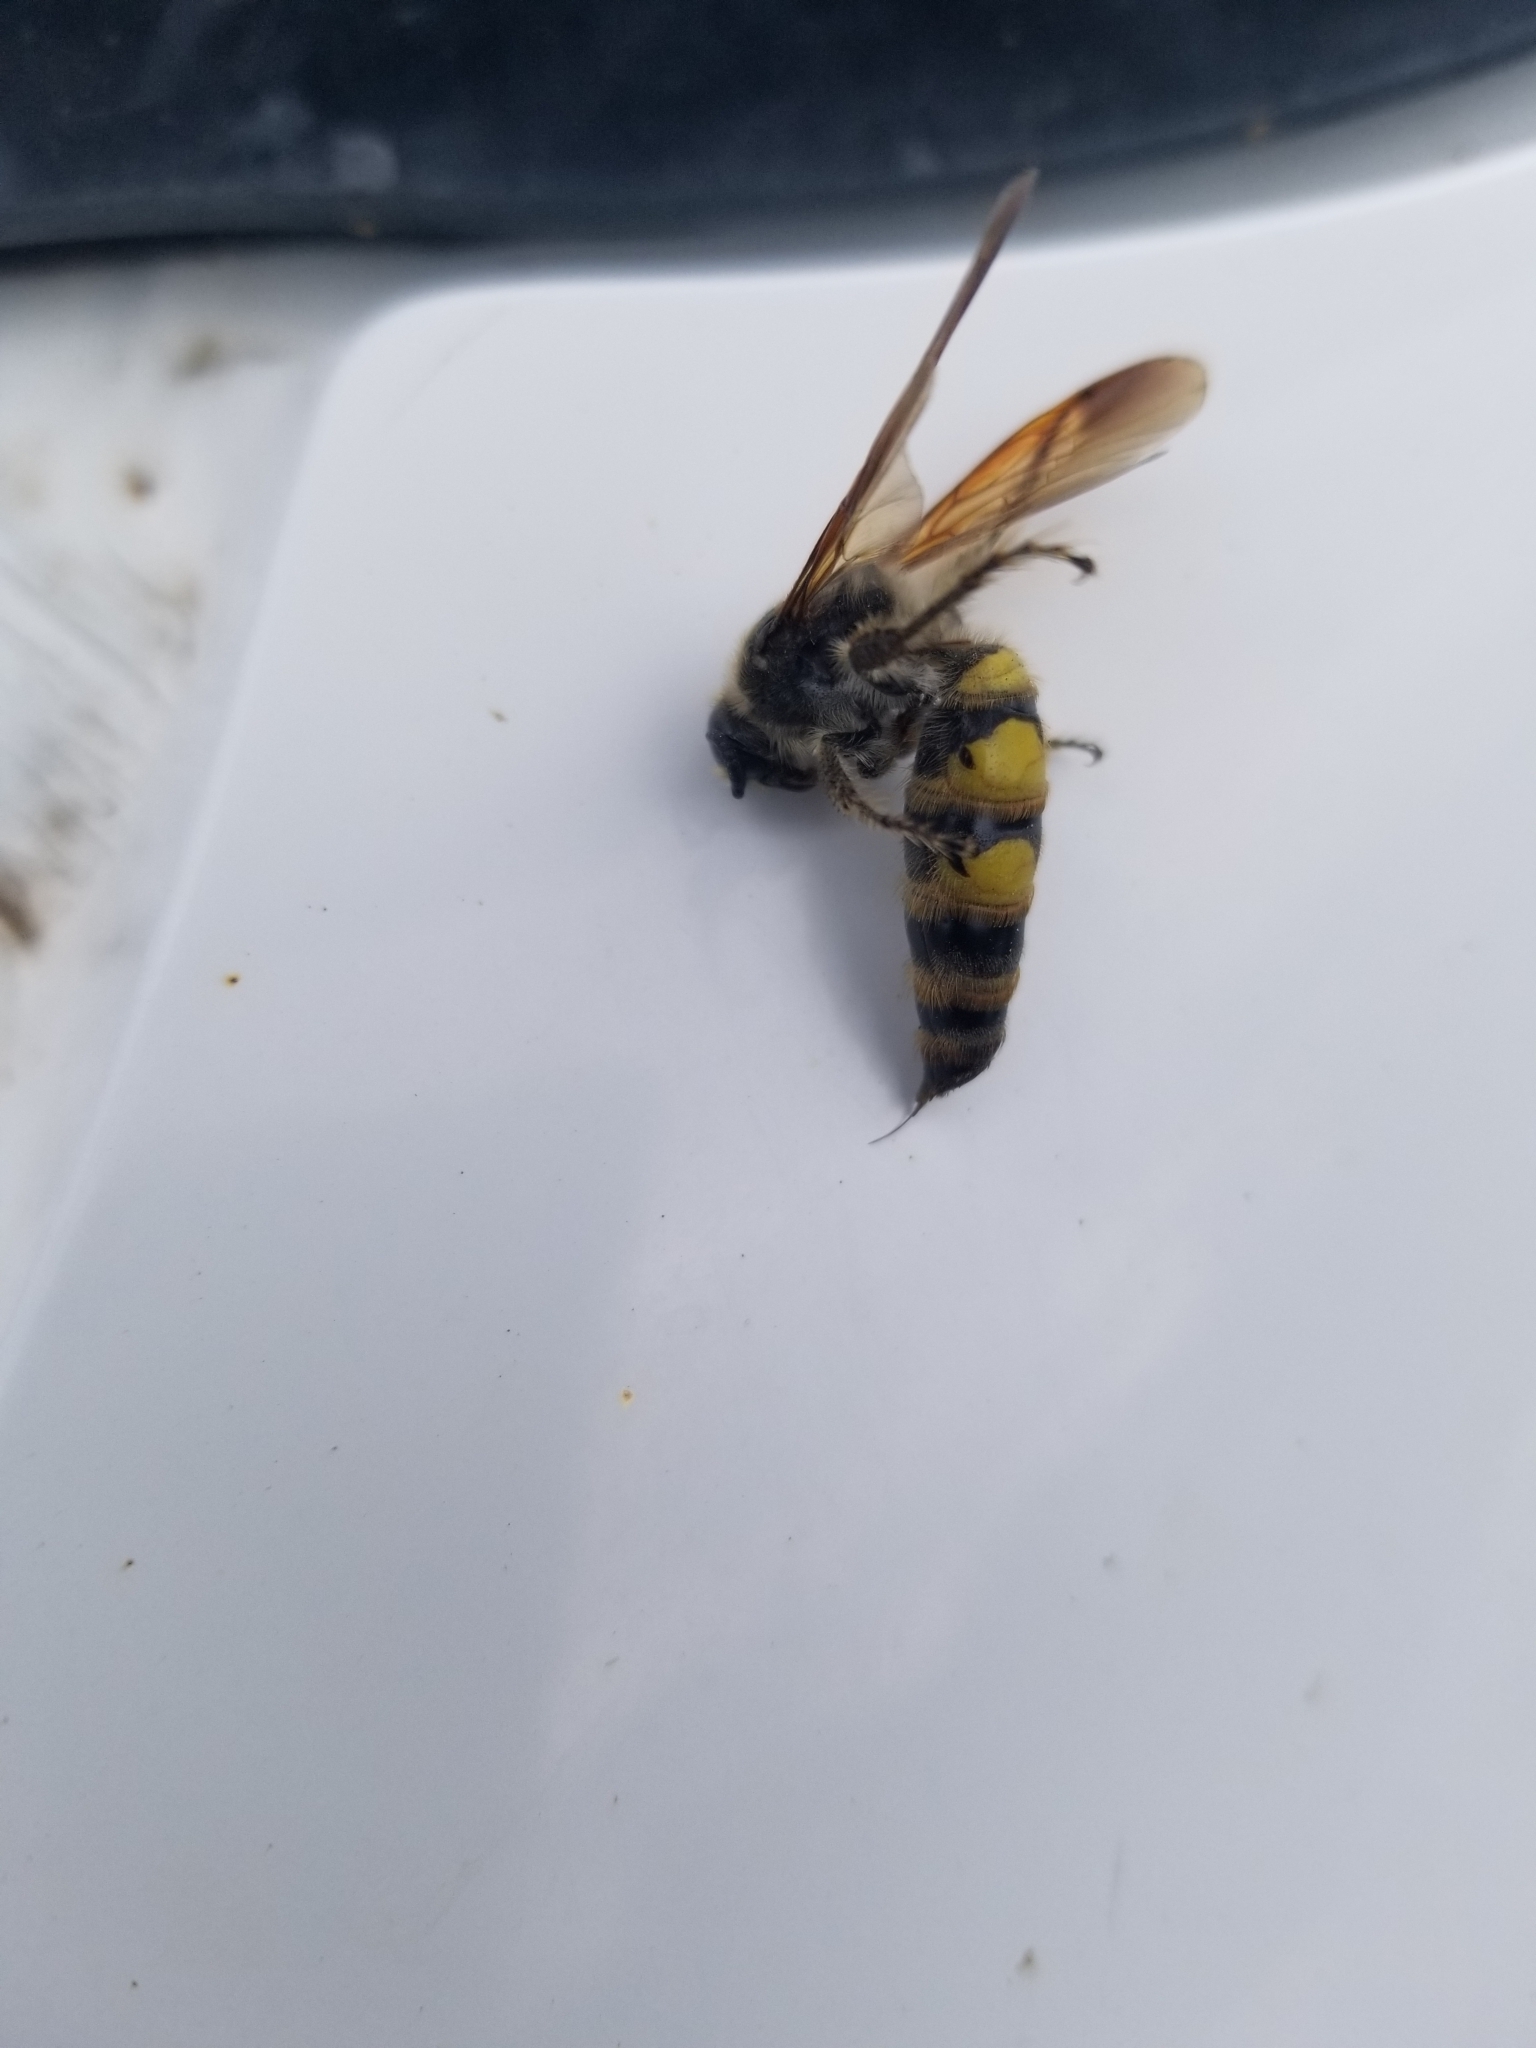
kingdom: Animalia
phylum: Arthropoda
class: Insecta
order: Hymenoptera
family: Scoliidae
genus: Dielis
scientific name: Dielis
